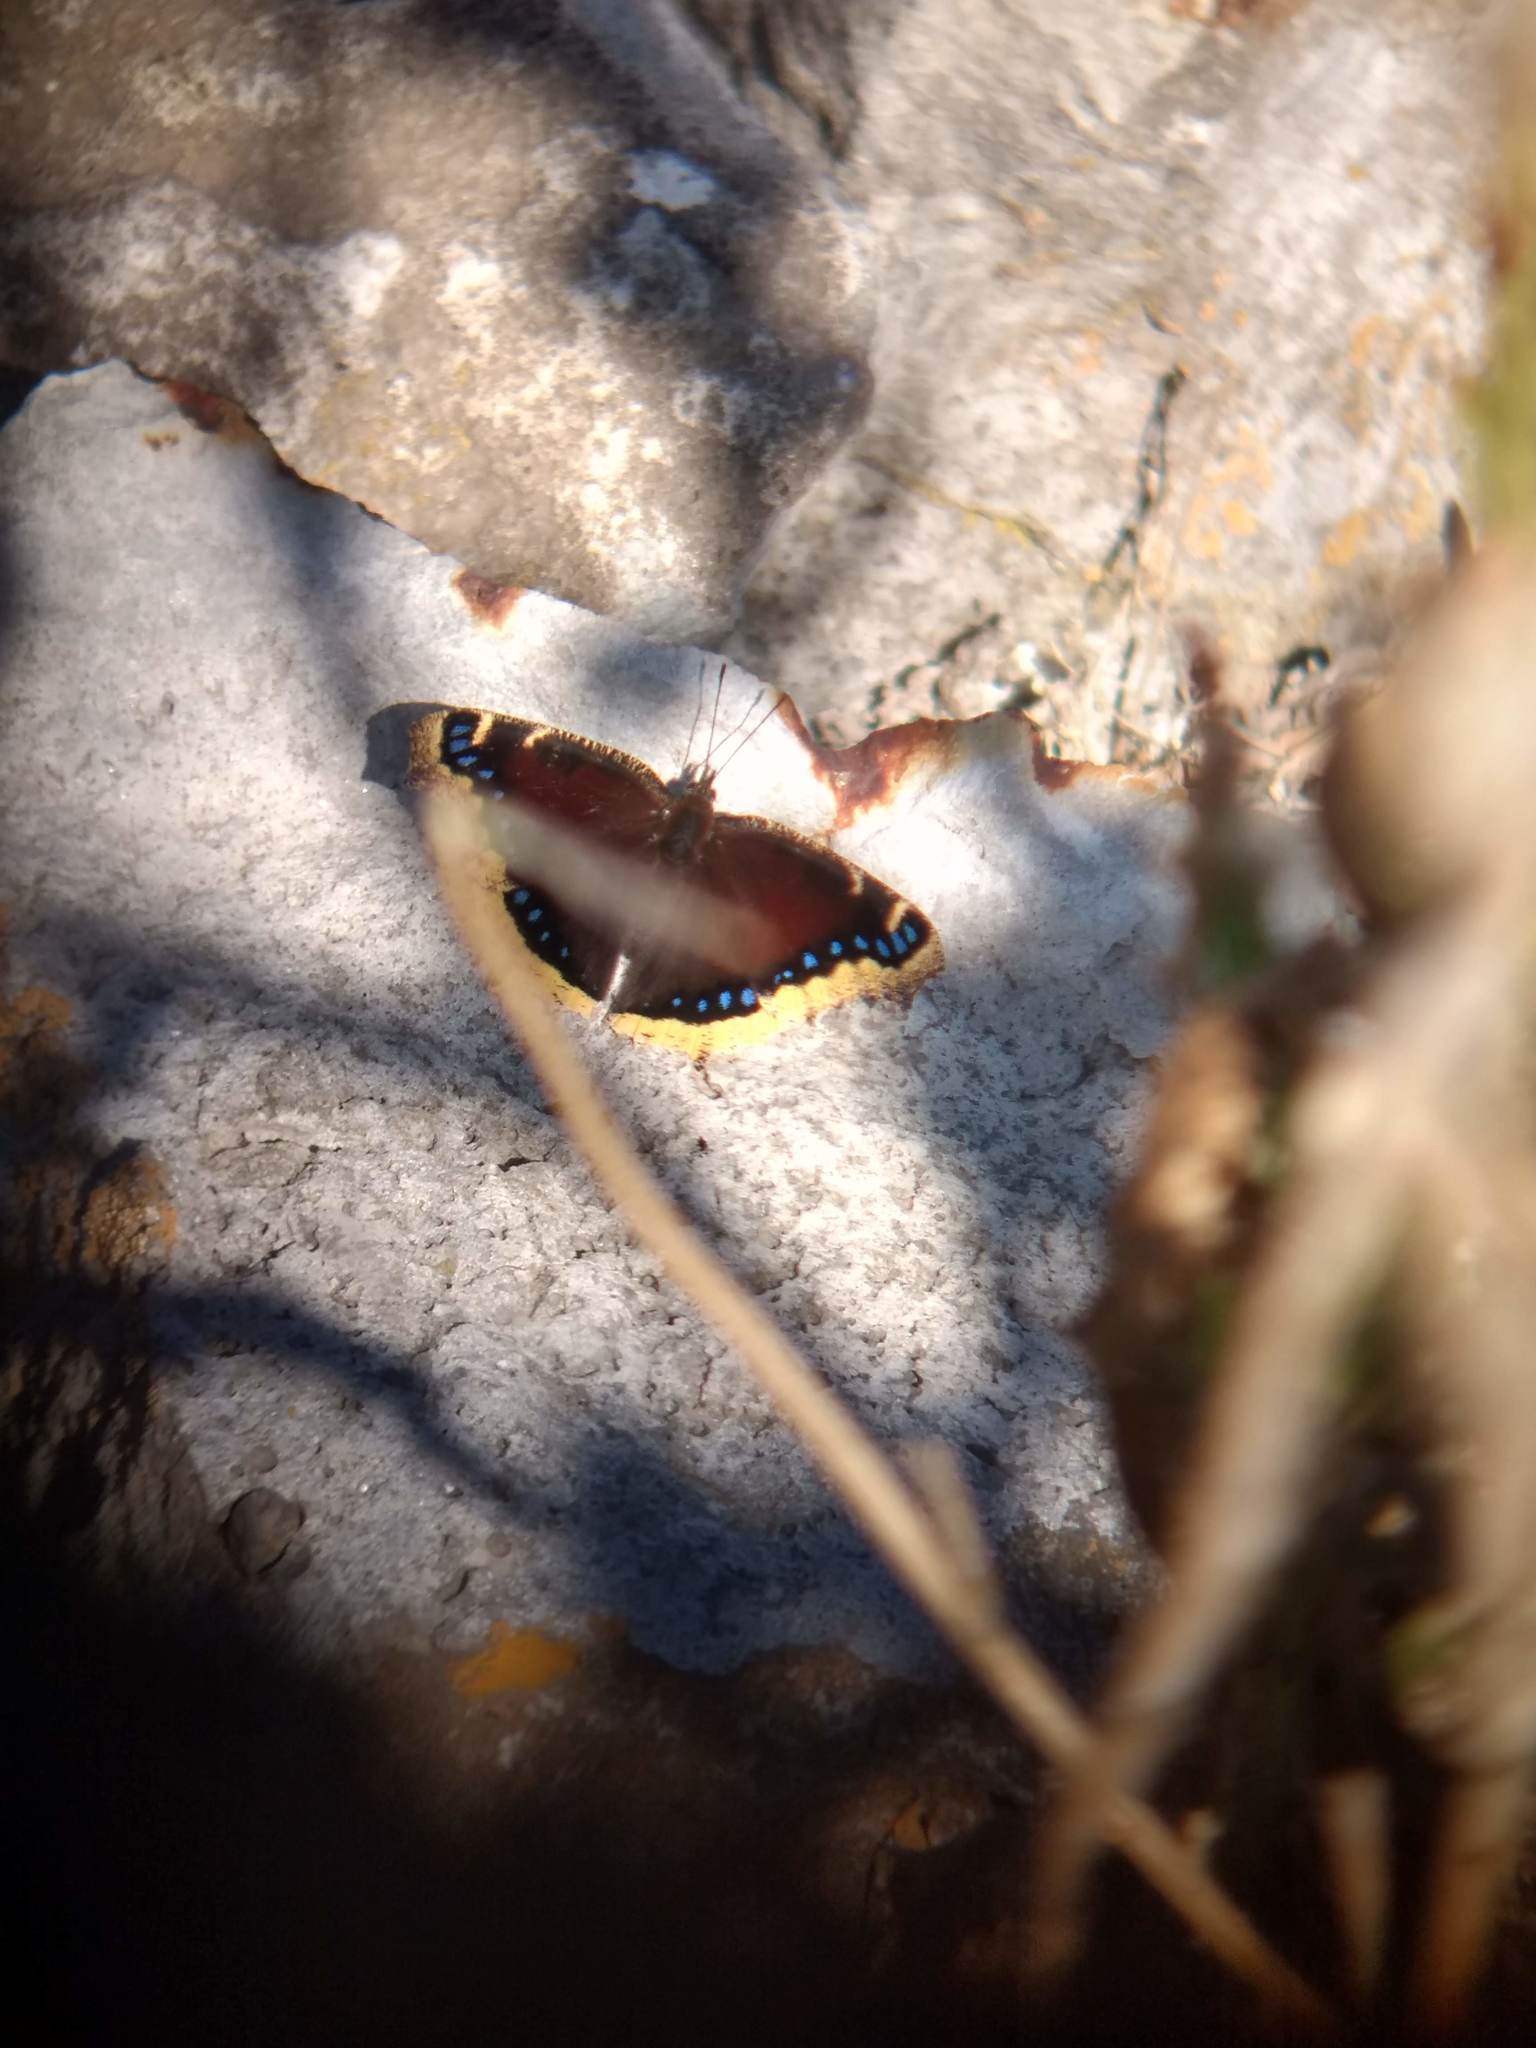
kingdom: Animalia
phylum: Arthropoda
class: Insecta
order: Lepidoptera
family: Nymphalidae
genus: Nymphalis
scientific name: Nymphalis antiopa
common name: Camberwell beauty
